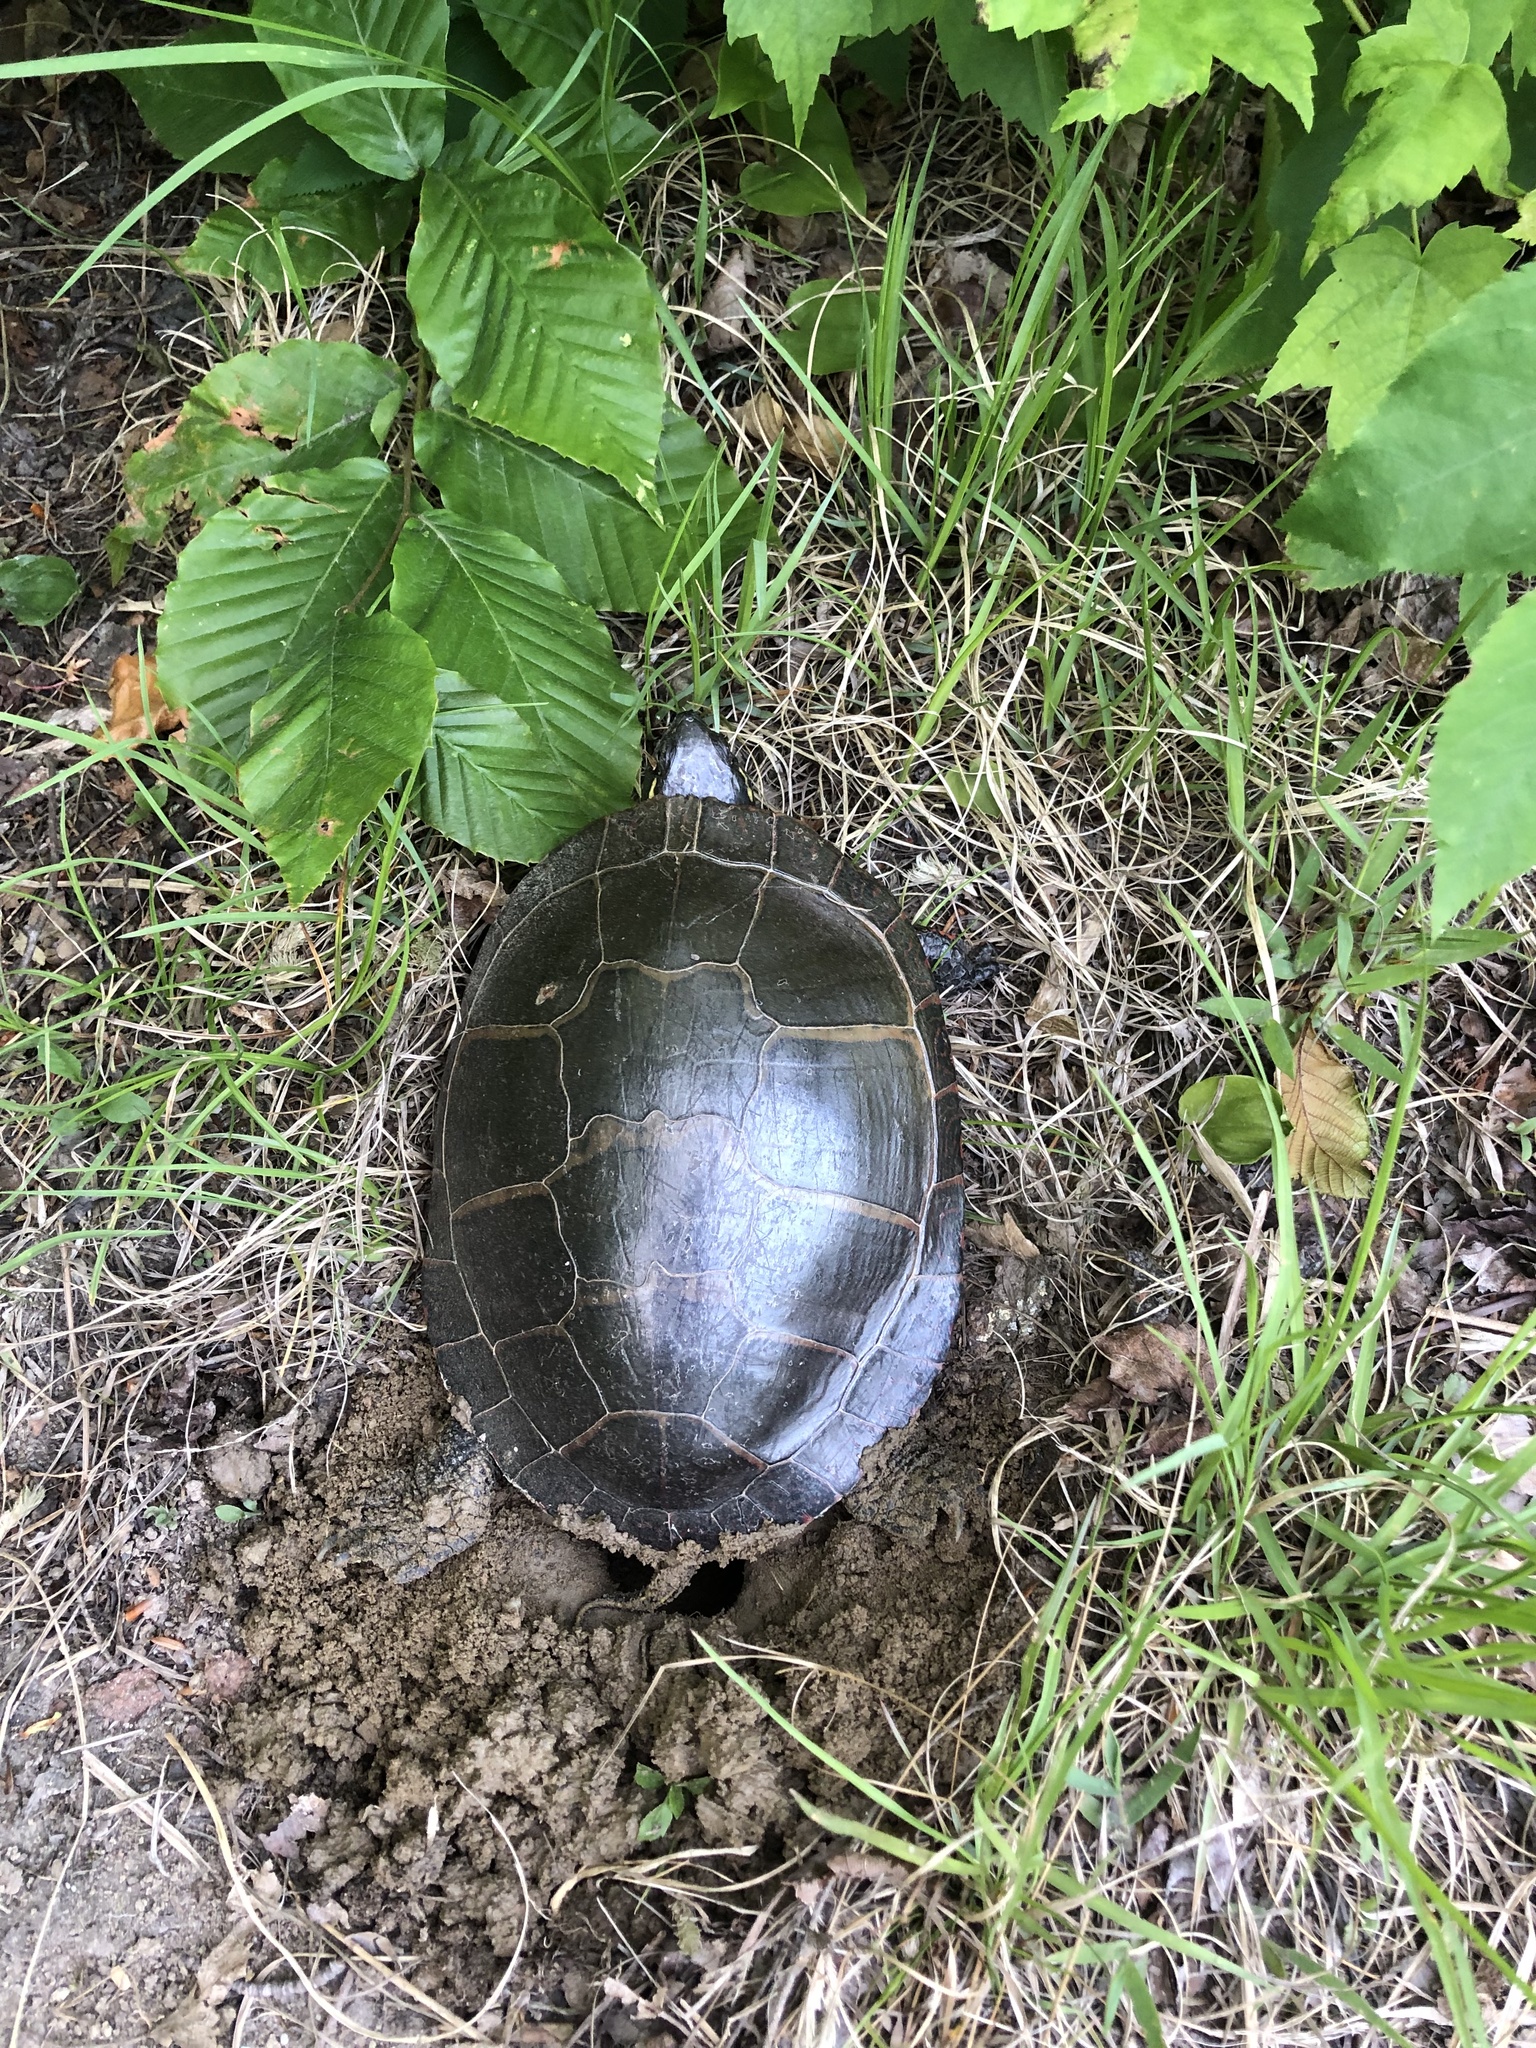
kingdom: Animalia
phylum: Chordata
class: Testudines
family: Emydidae
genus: Chrysemys
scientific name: Chrysemys picta
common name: Painted turtle
